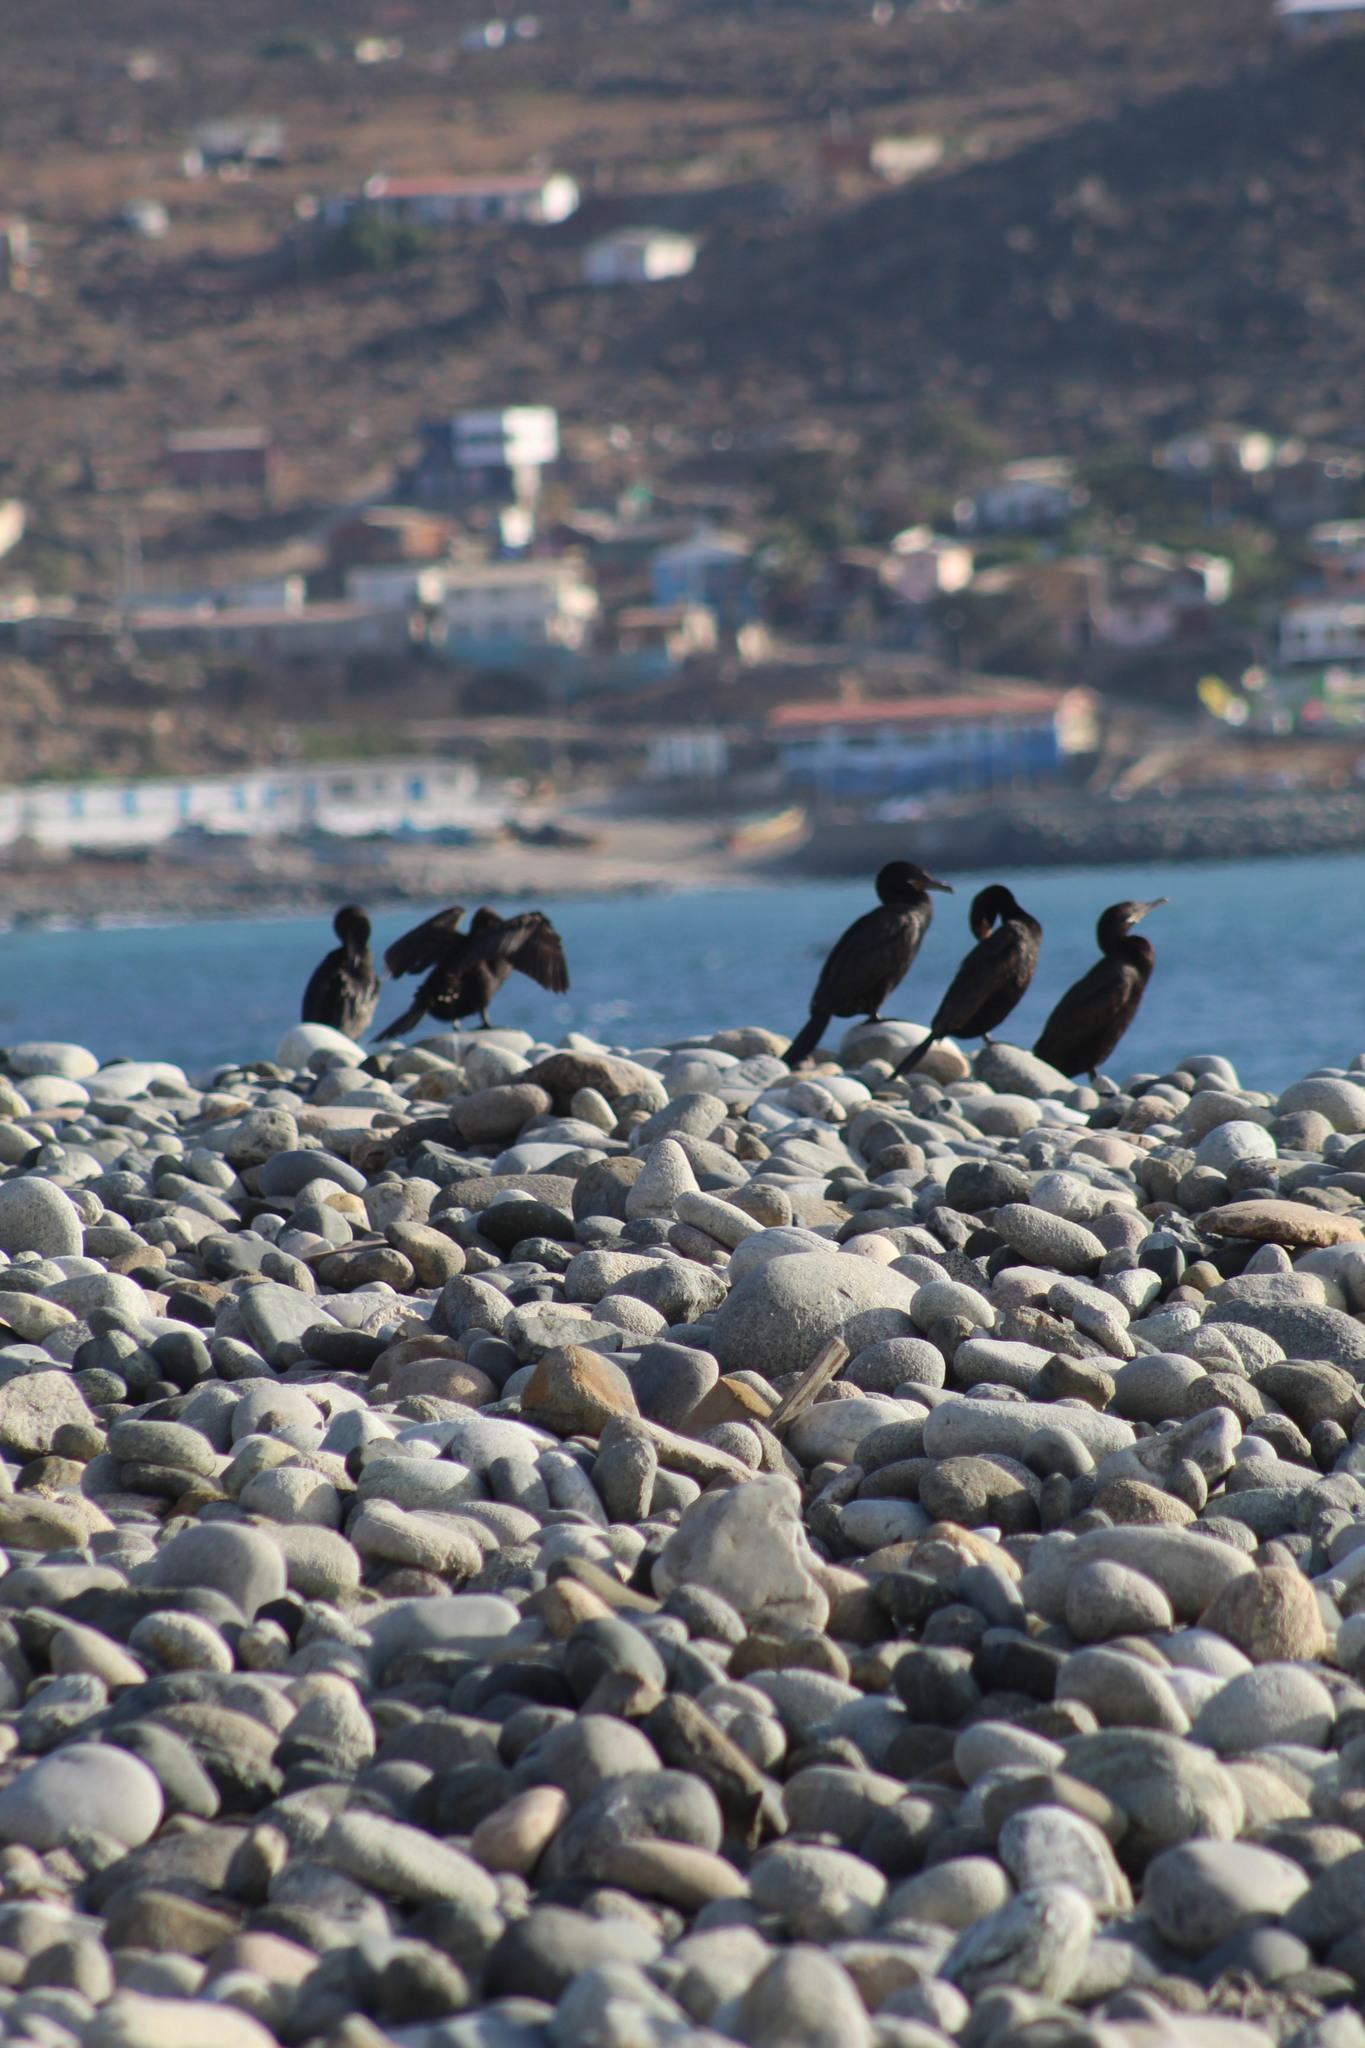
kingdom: Animalia
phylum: Chordata
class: Aves
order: Suliformes
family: Phalacrocoracidae
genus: Phalacrocorax
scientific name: Phalacrocorax brasilianus
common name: Neotropic cormorant
